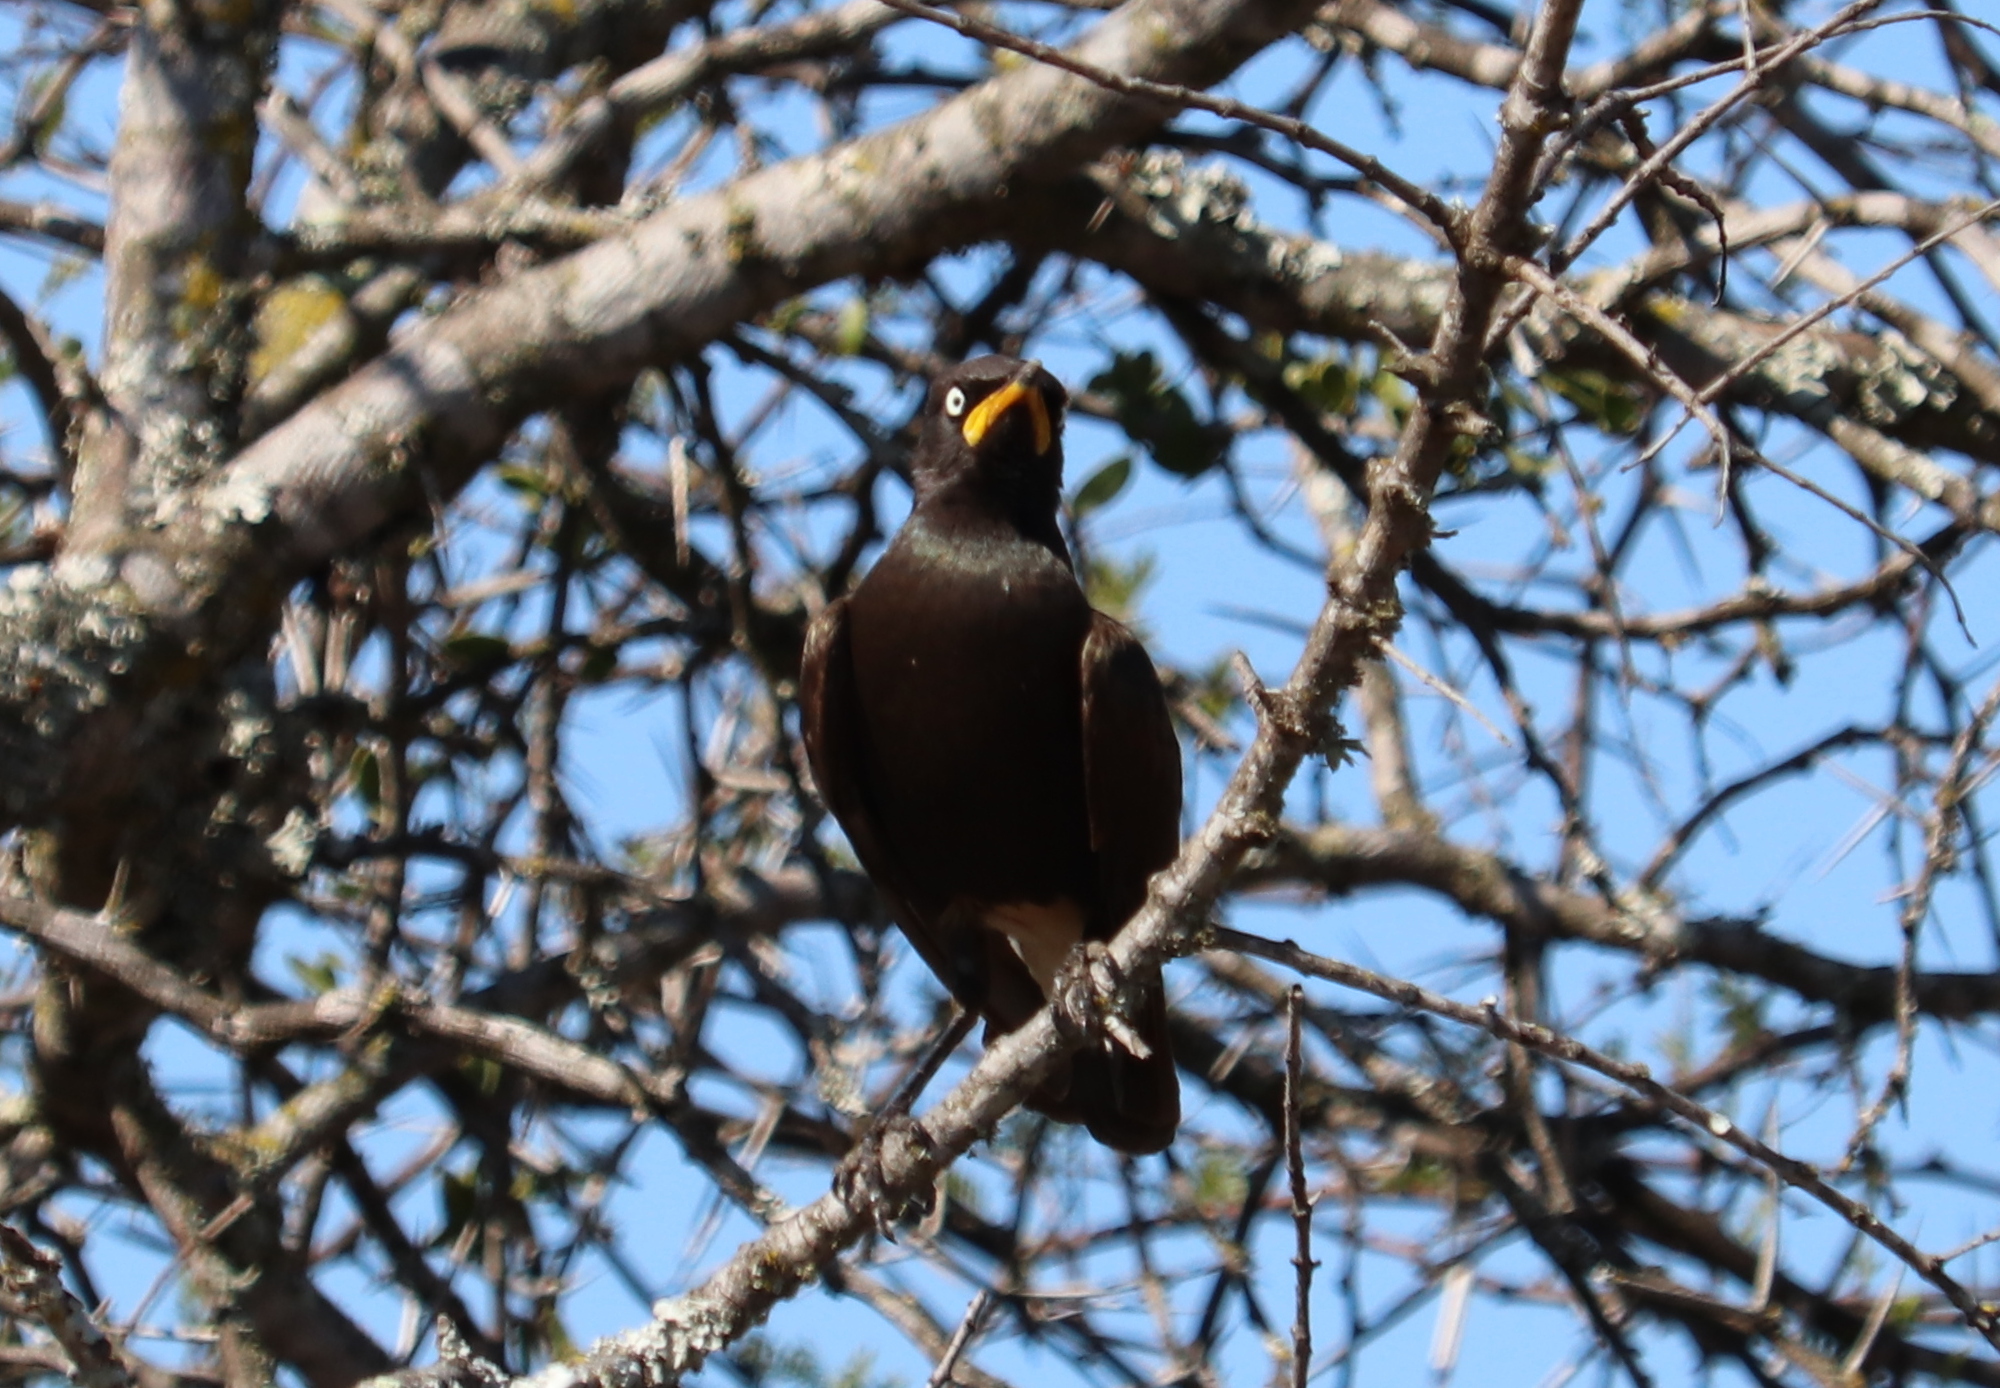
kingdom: Animalia
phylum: Chordata
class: Aves
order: Passeriformes
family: Sturnidae
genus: Lamprotornis
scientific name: Lamprotornis bicolor
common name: Pied starling
